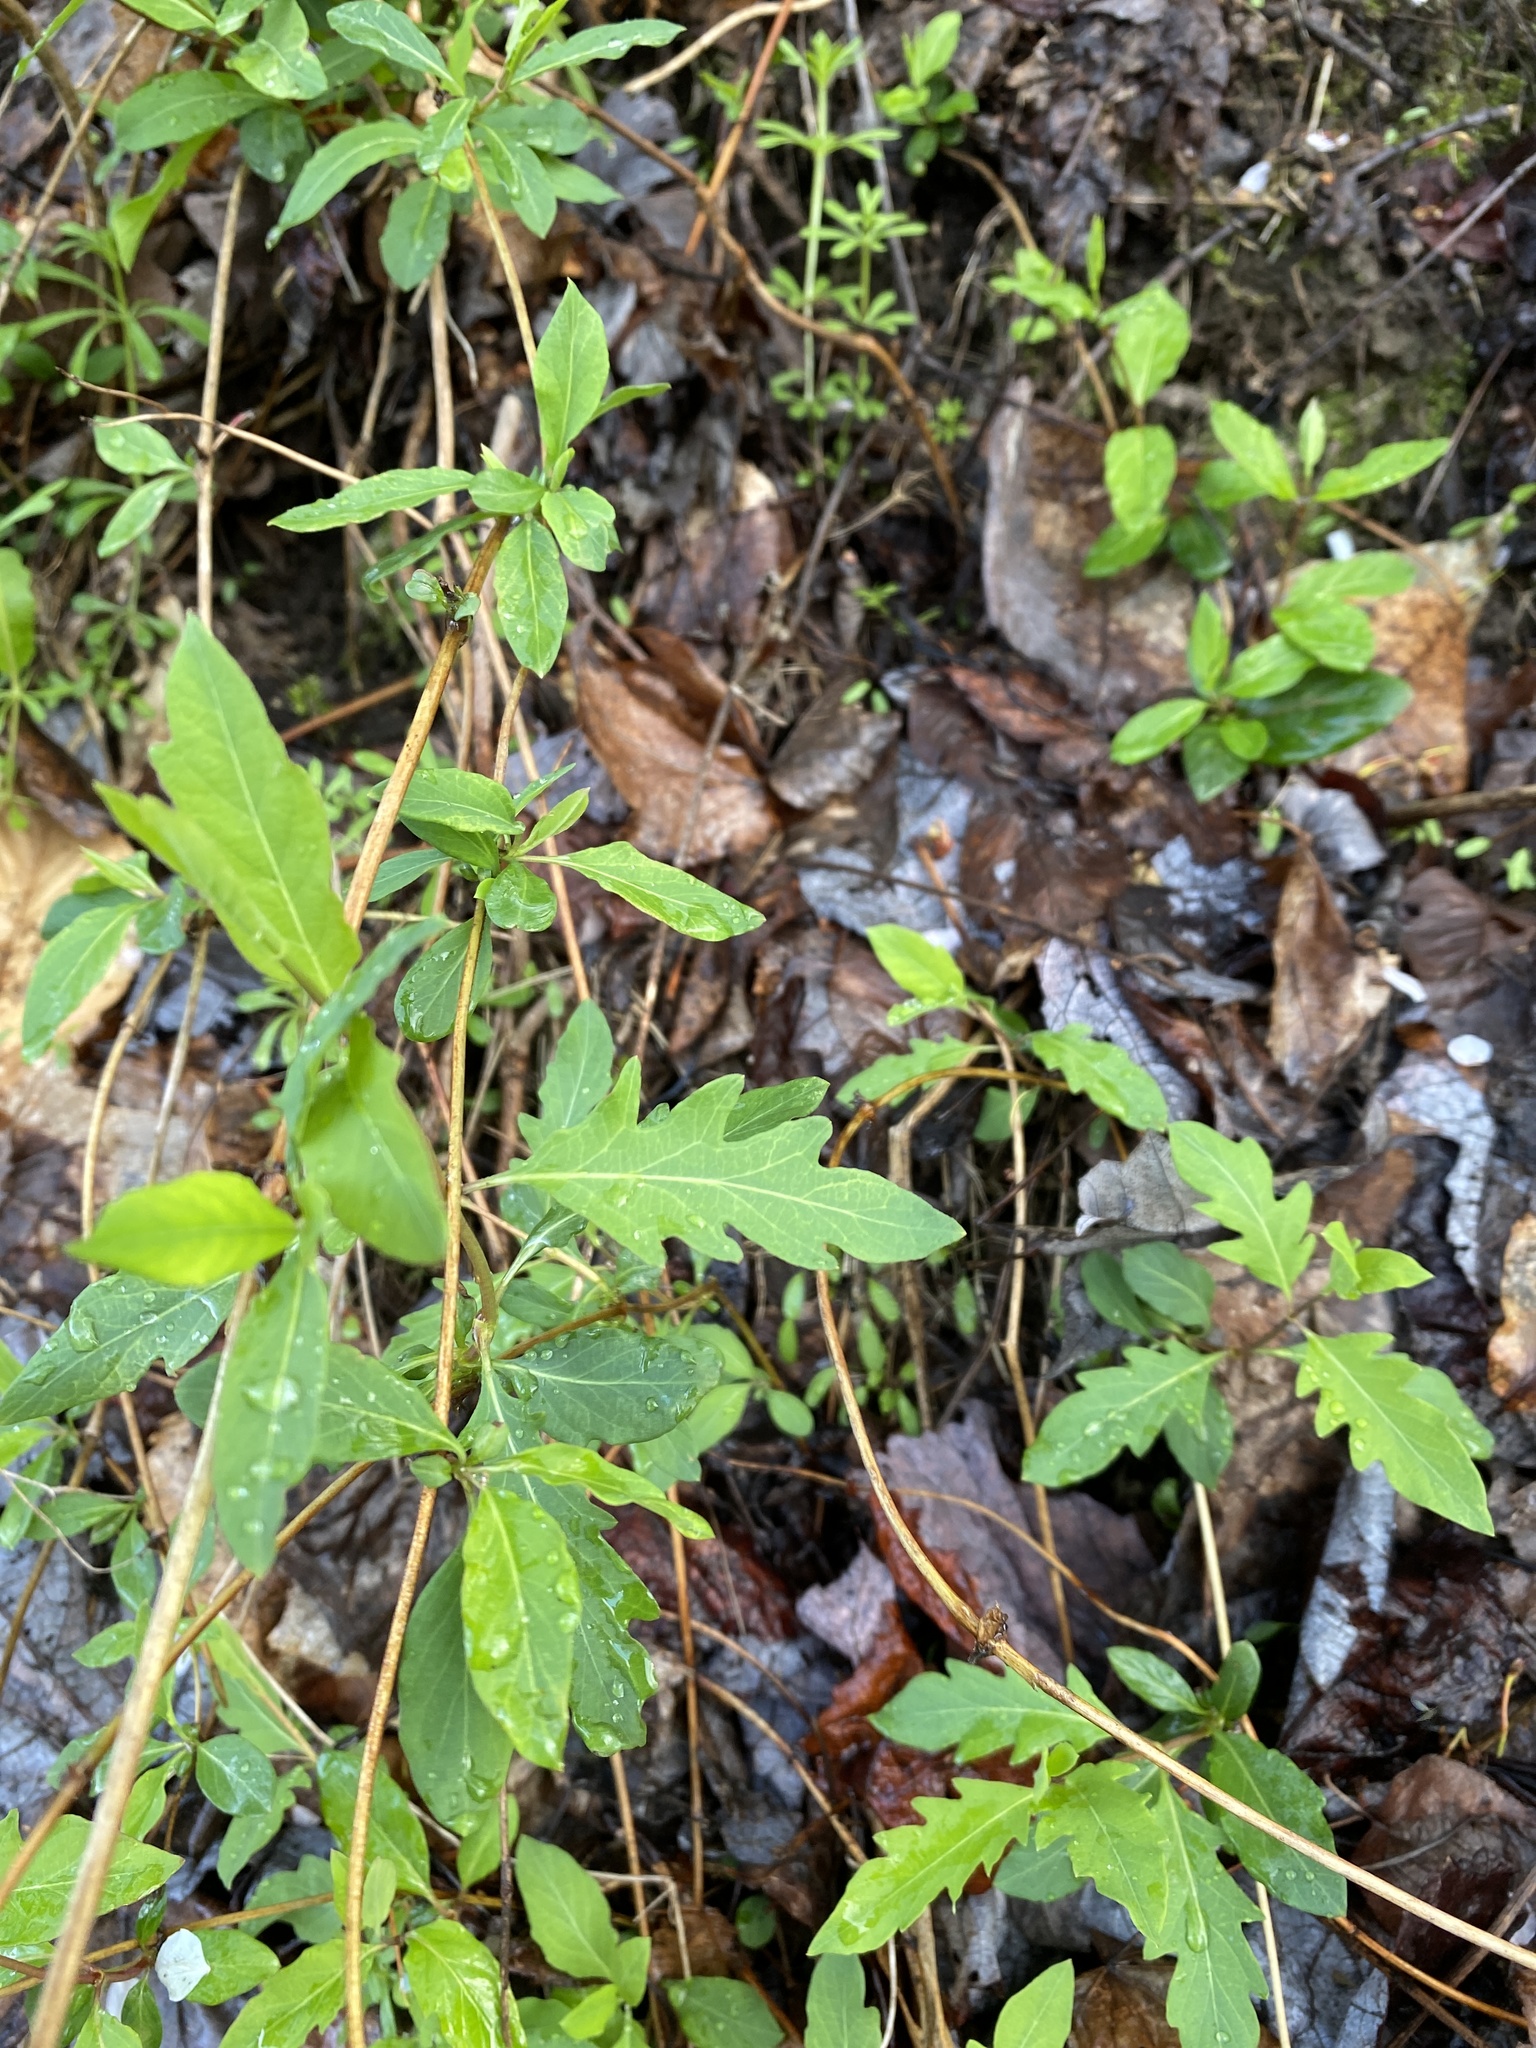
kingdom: Plantae
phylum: Tracheophyta
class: Magnoliopsida
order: Dipsacales
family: Caprifoliaceae
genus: Lonicera
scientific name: Lonicera japonica
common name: Japanese honeysuckle
